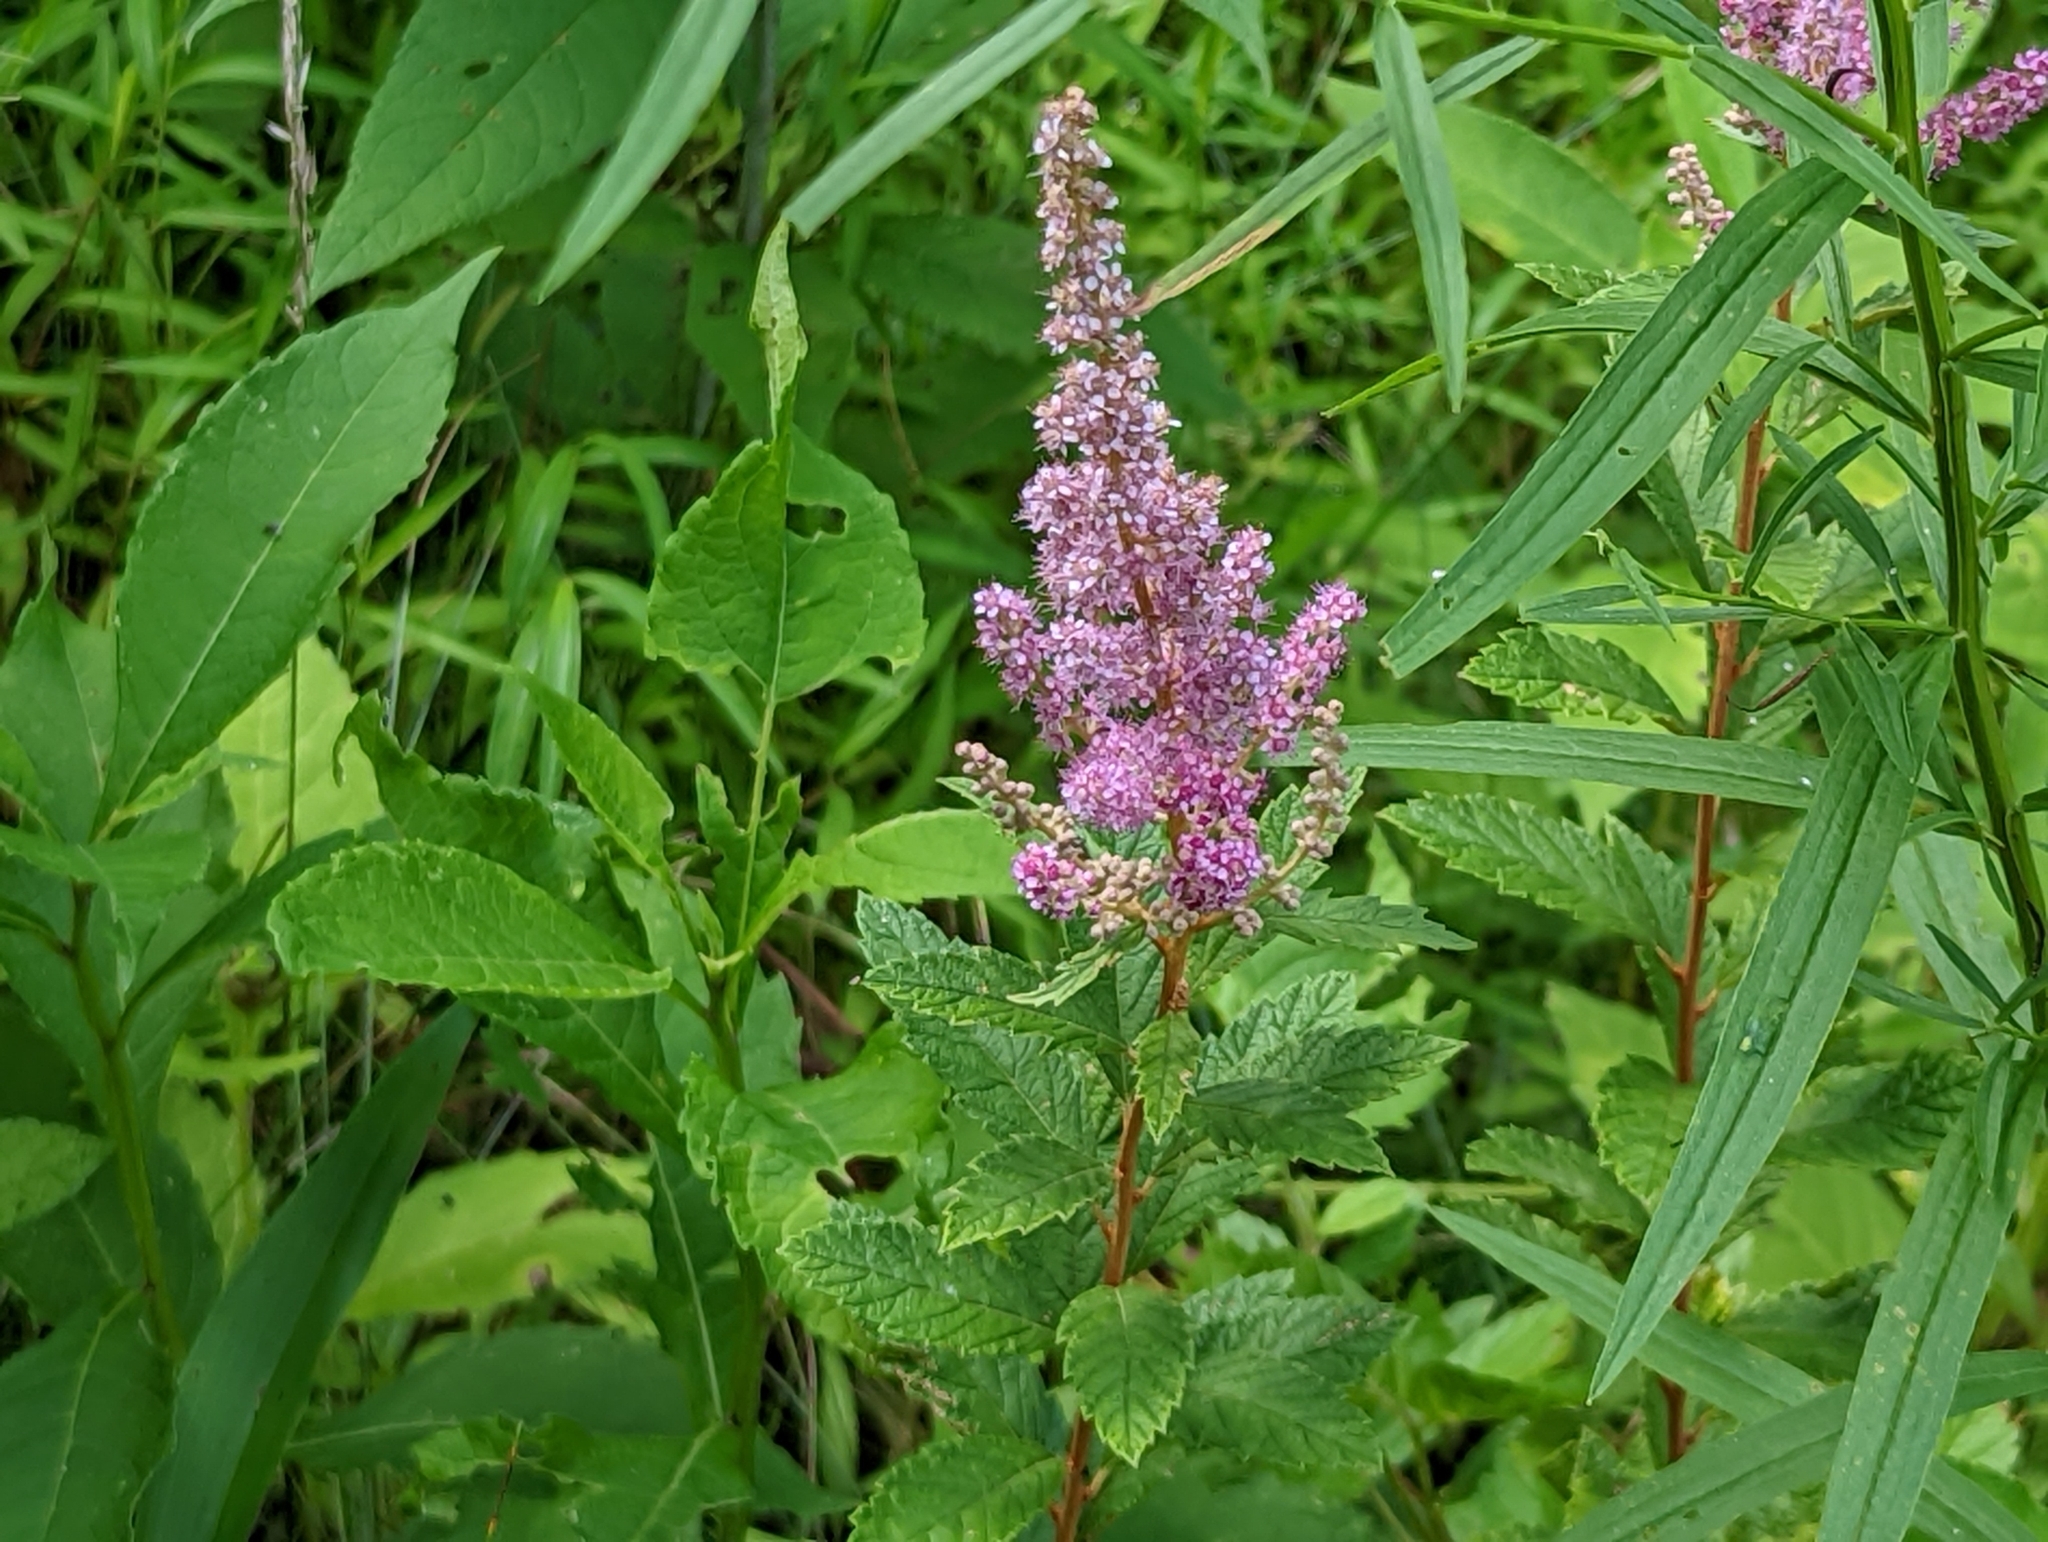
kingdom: Plantae
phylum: Tracheophyta
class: Magnoliopsida
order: Rosales
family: Rosaceae
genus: Spiraea
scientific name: Spiraea tomentosa
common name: Hardhack
